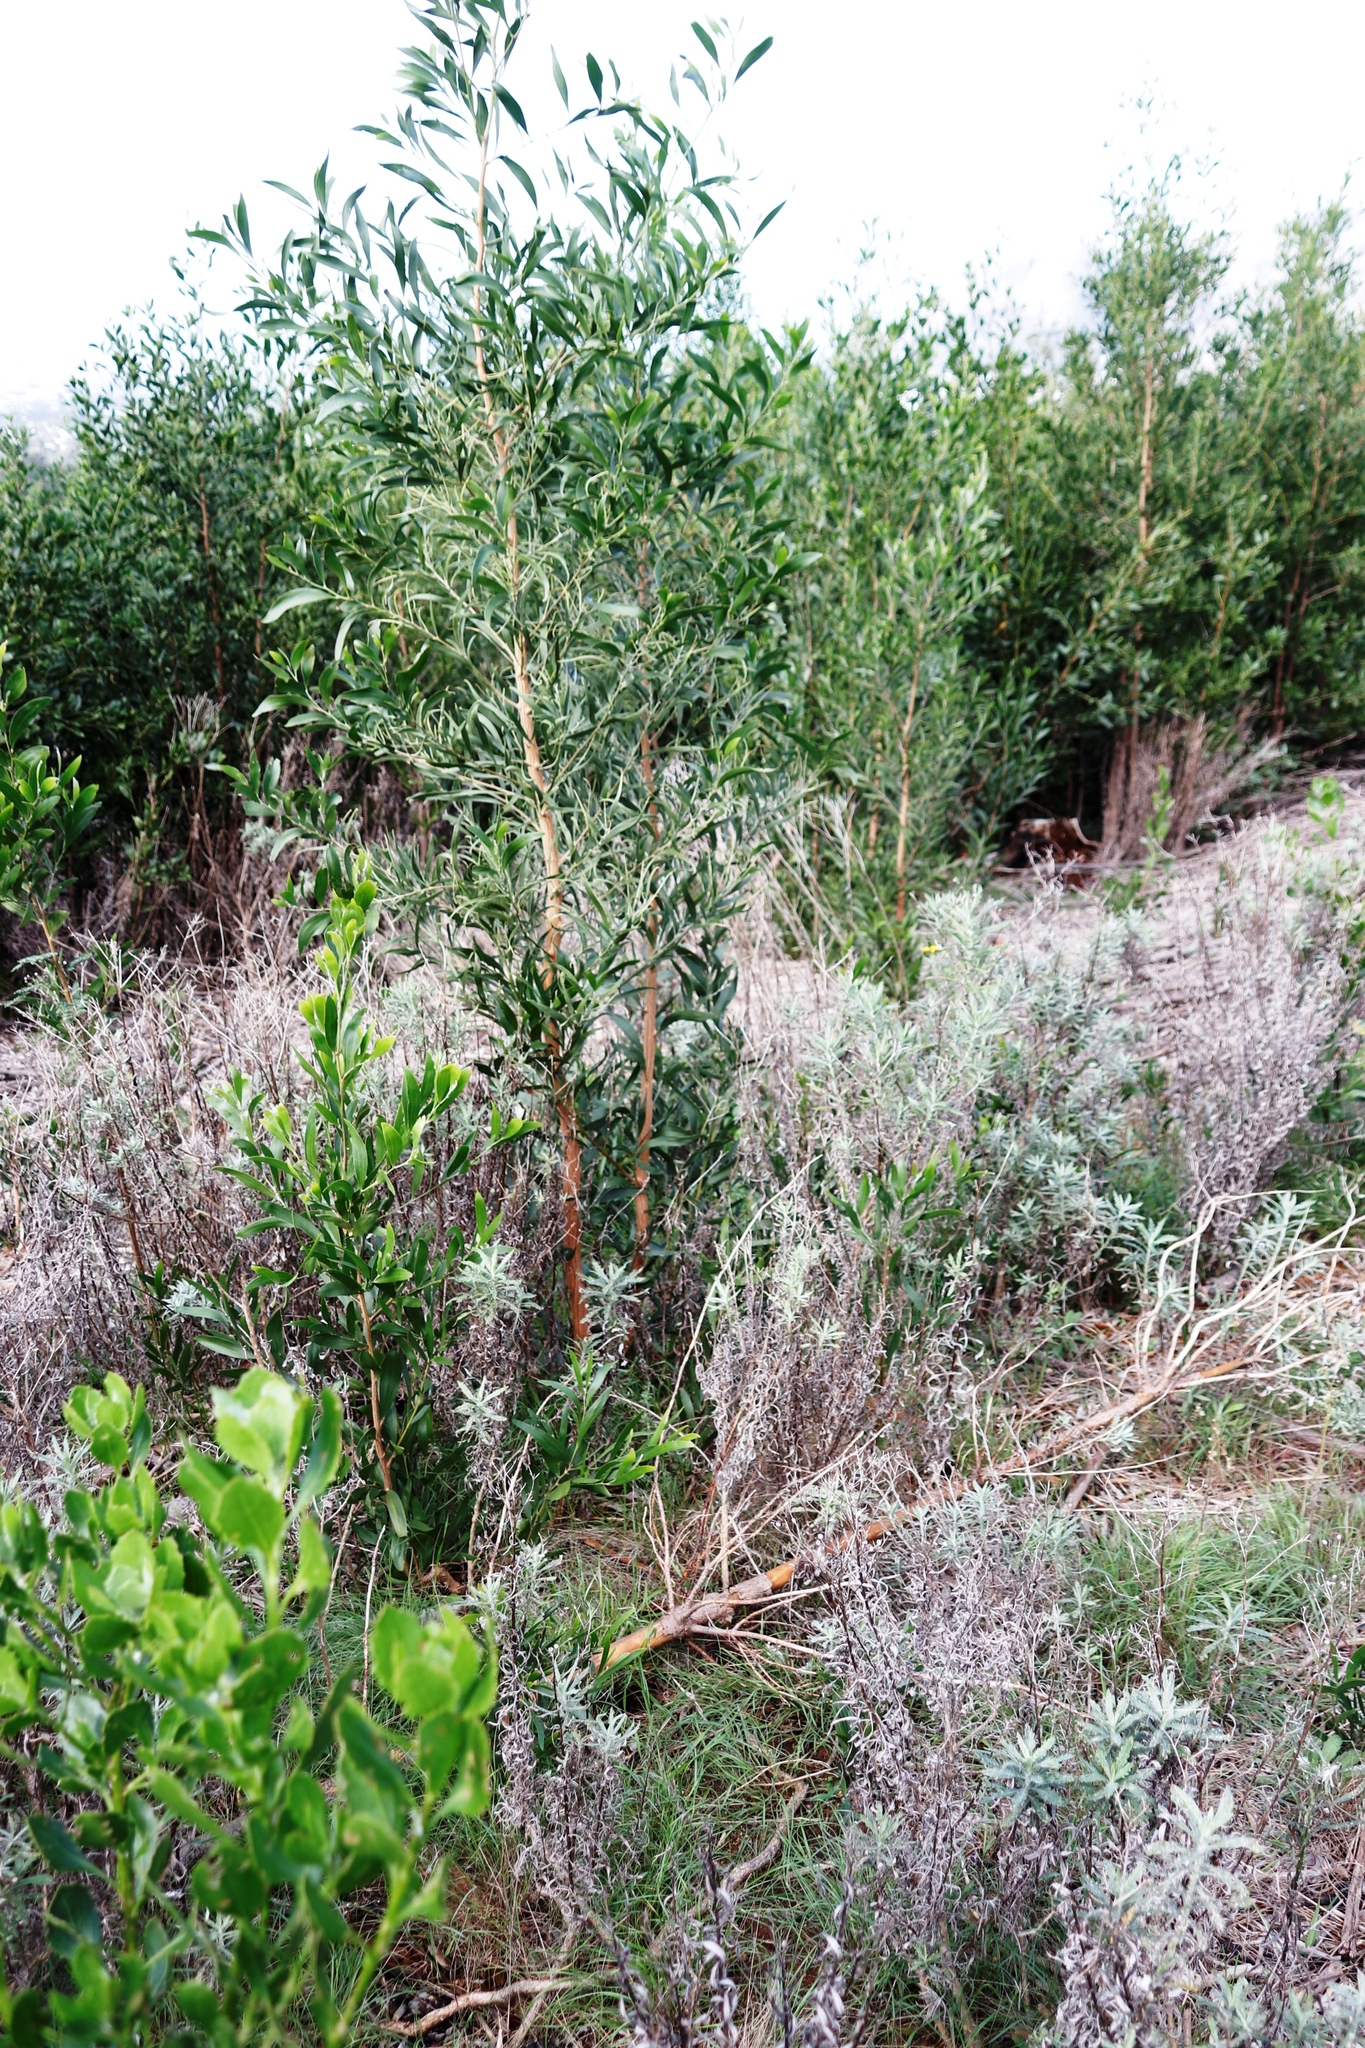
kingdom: Plantae
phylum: Tracheophyta
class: Magnoliopsida
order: Asterales
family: Asteraceae
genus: Senecio
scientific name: Senecio pterophorus
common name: Shoddy ragwort
